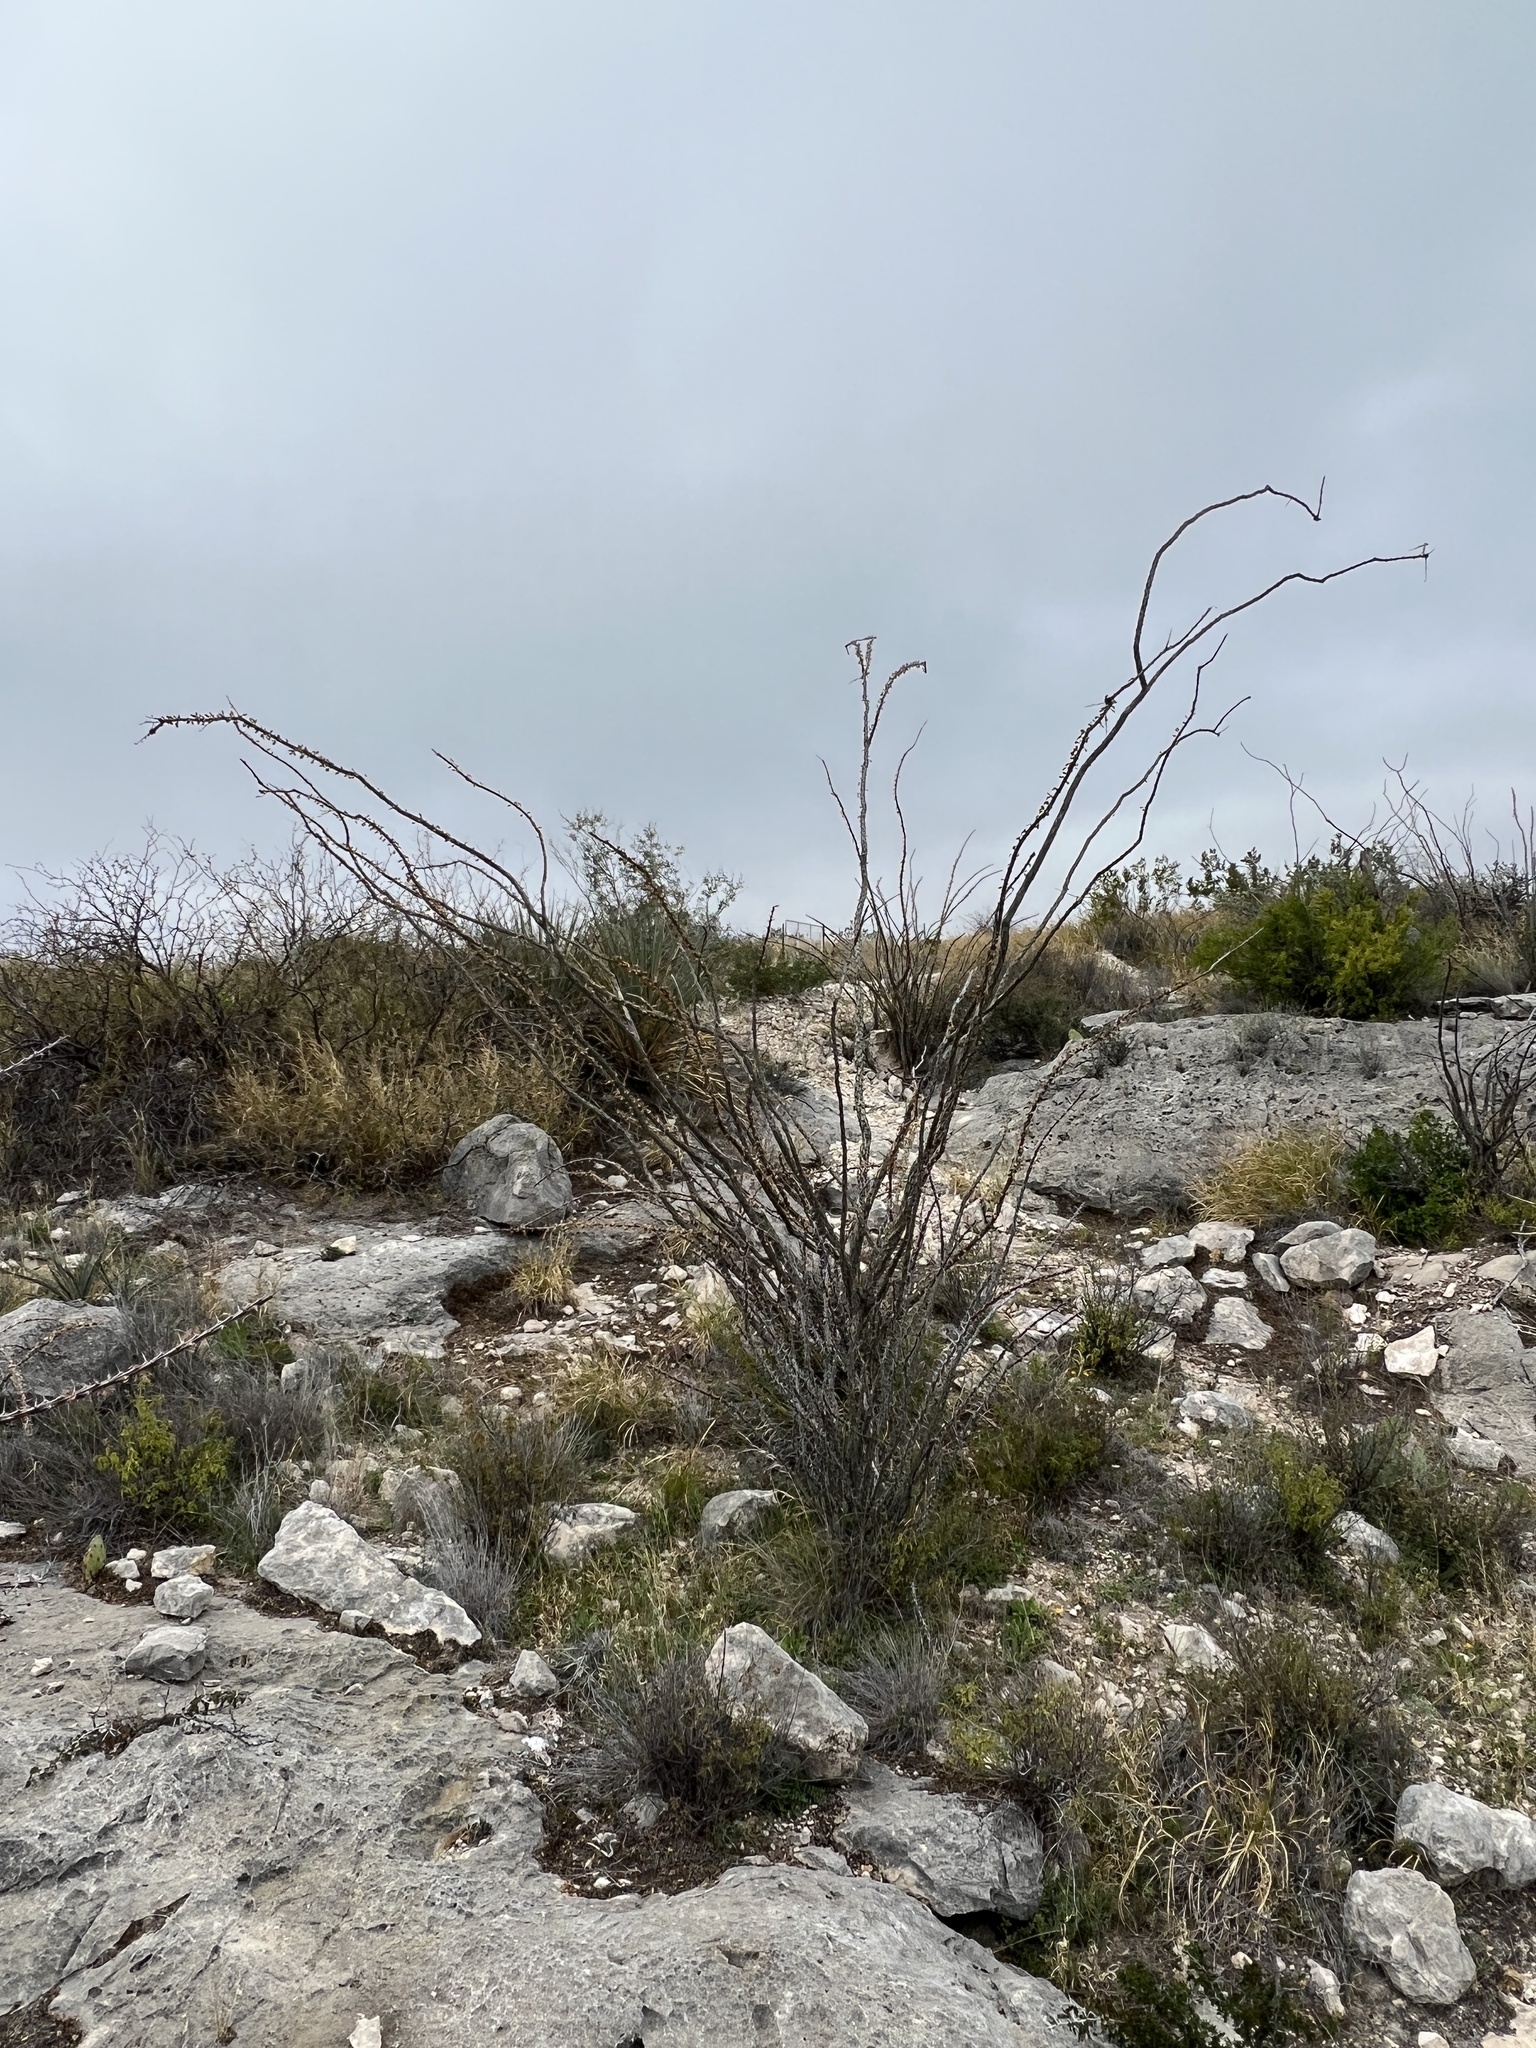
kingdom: Plantae
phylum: Tracheophyta
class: Magnoliopsida
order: Ericales
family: Fouquieriaceae
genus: Fouquieria
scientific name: Fouquieria splendens
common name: Vine-cactus
